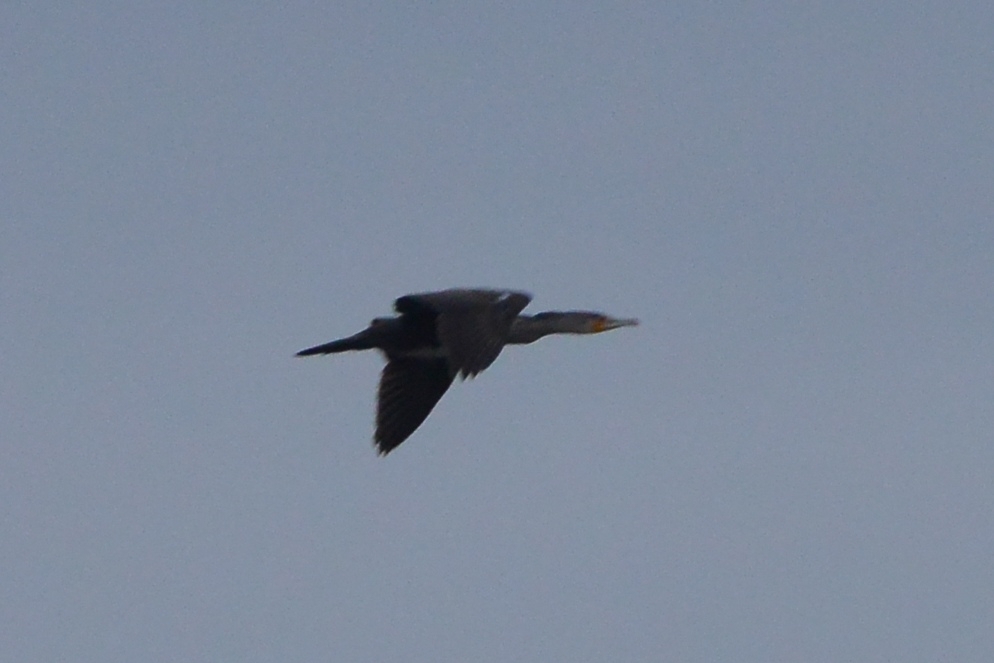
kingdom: Animalia
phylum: Chordata
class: Aves
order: Suliformes
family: Phalacrocoracidae
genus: Phalacrocorax
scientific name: Phalacrocorax carbo
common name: Great cormorant
